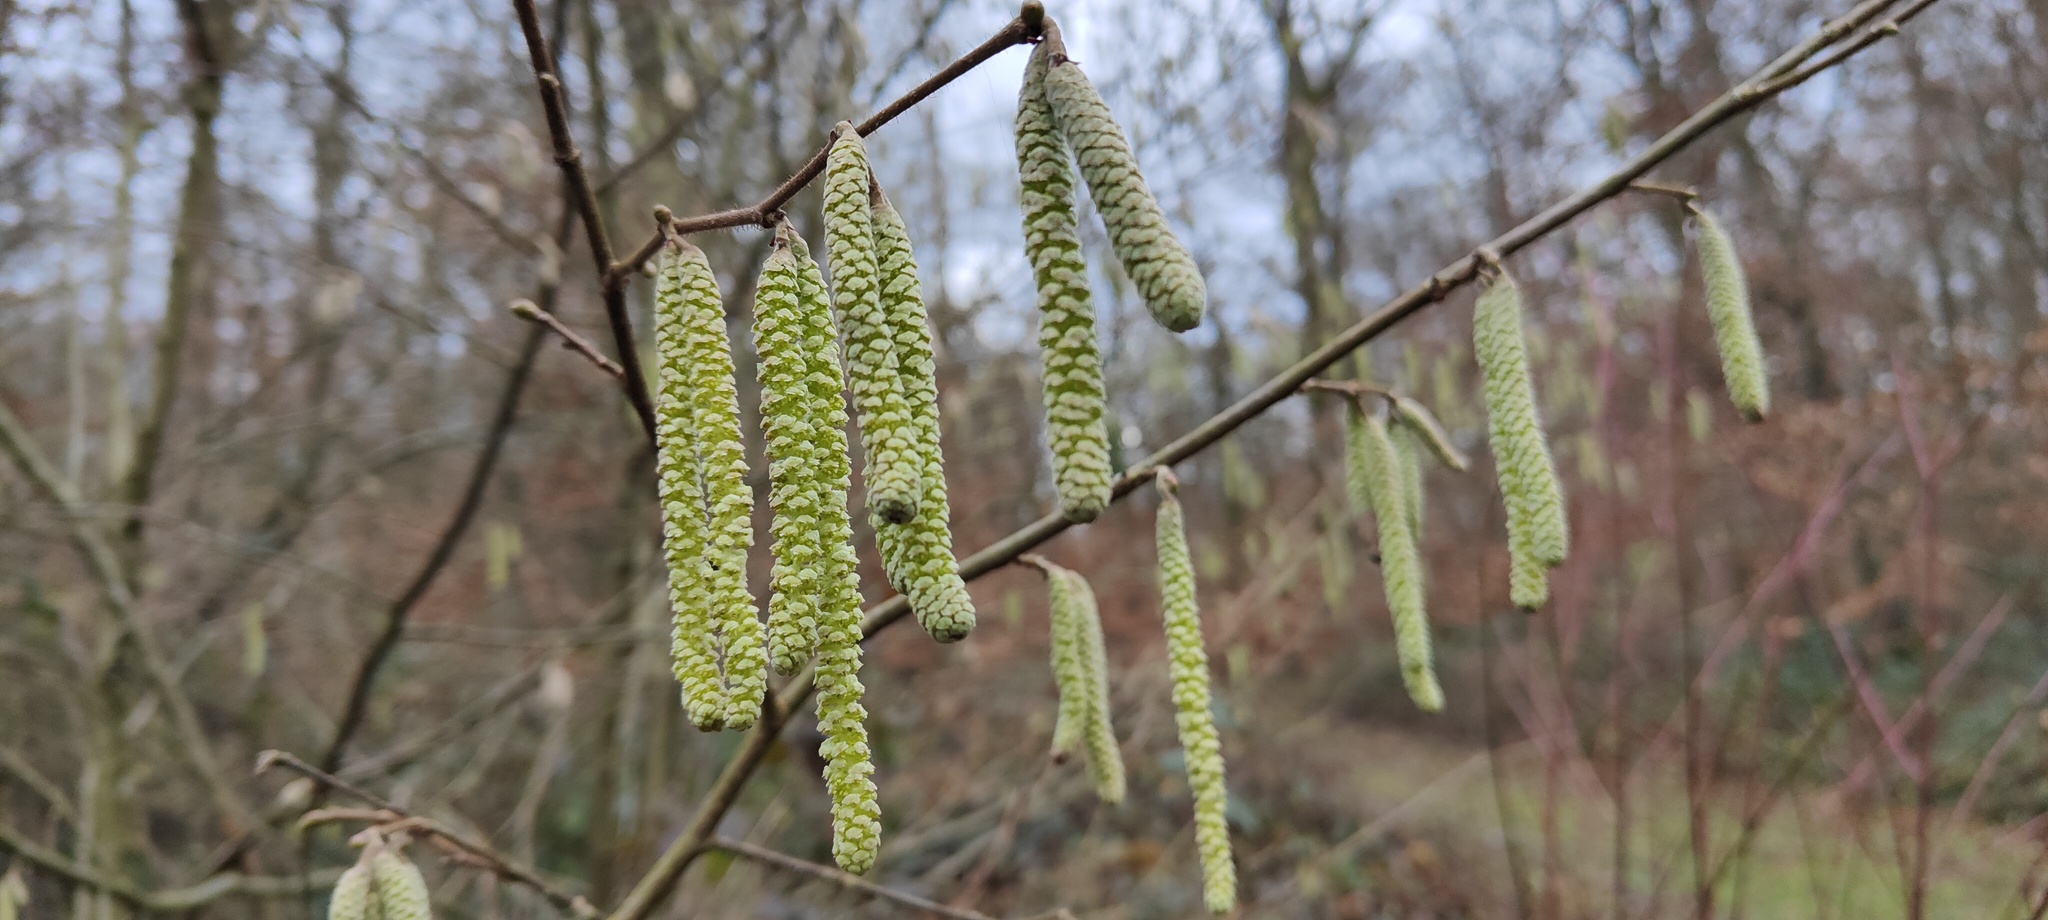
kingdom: Plantae
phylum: Tracheophyta
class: Magnoliopsida
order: Fagales
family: Betulaceae
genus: Corylus
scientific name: Corylus avellana
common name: European hazel
